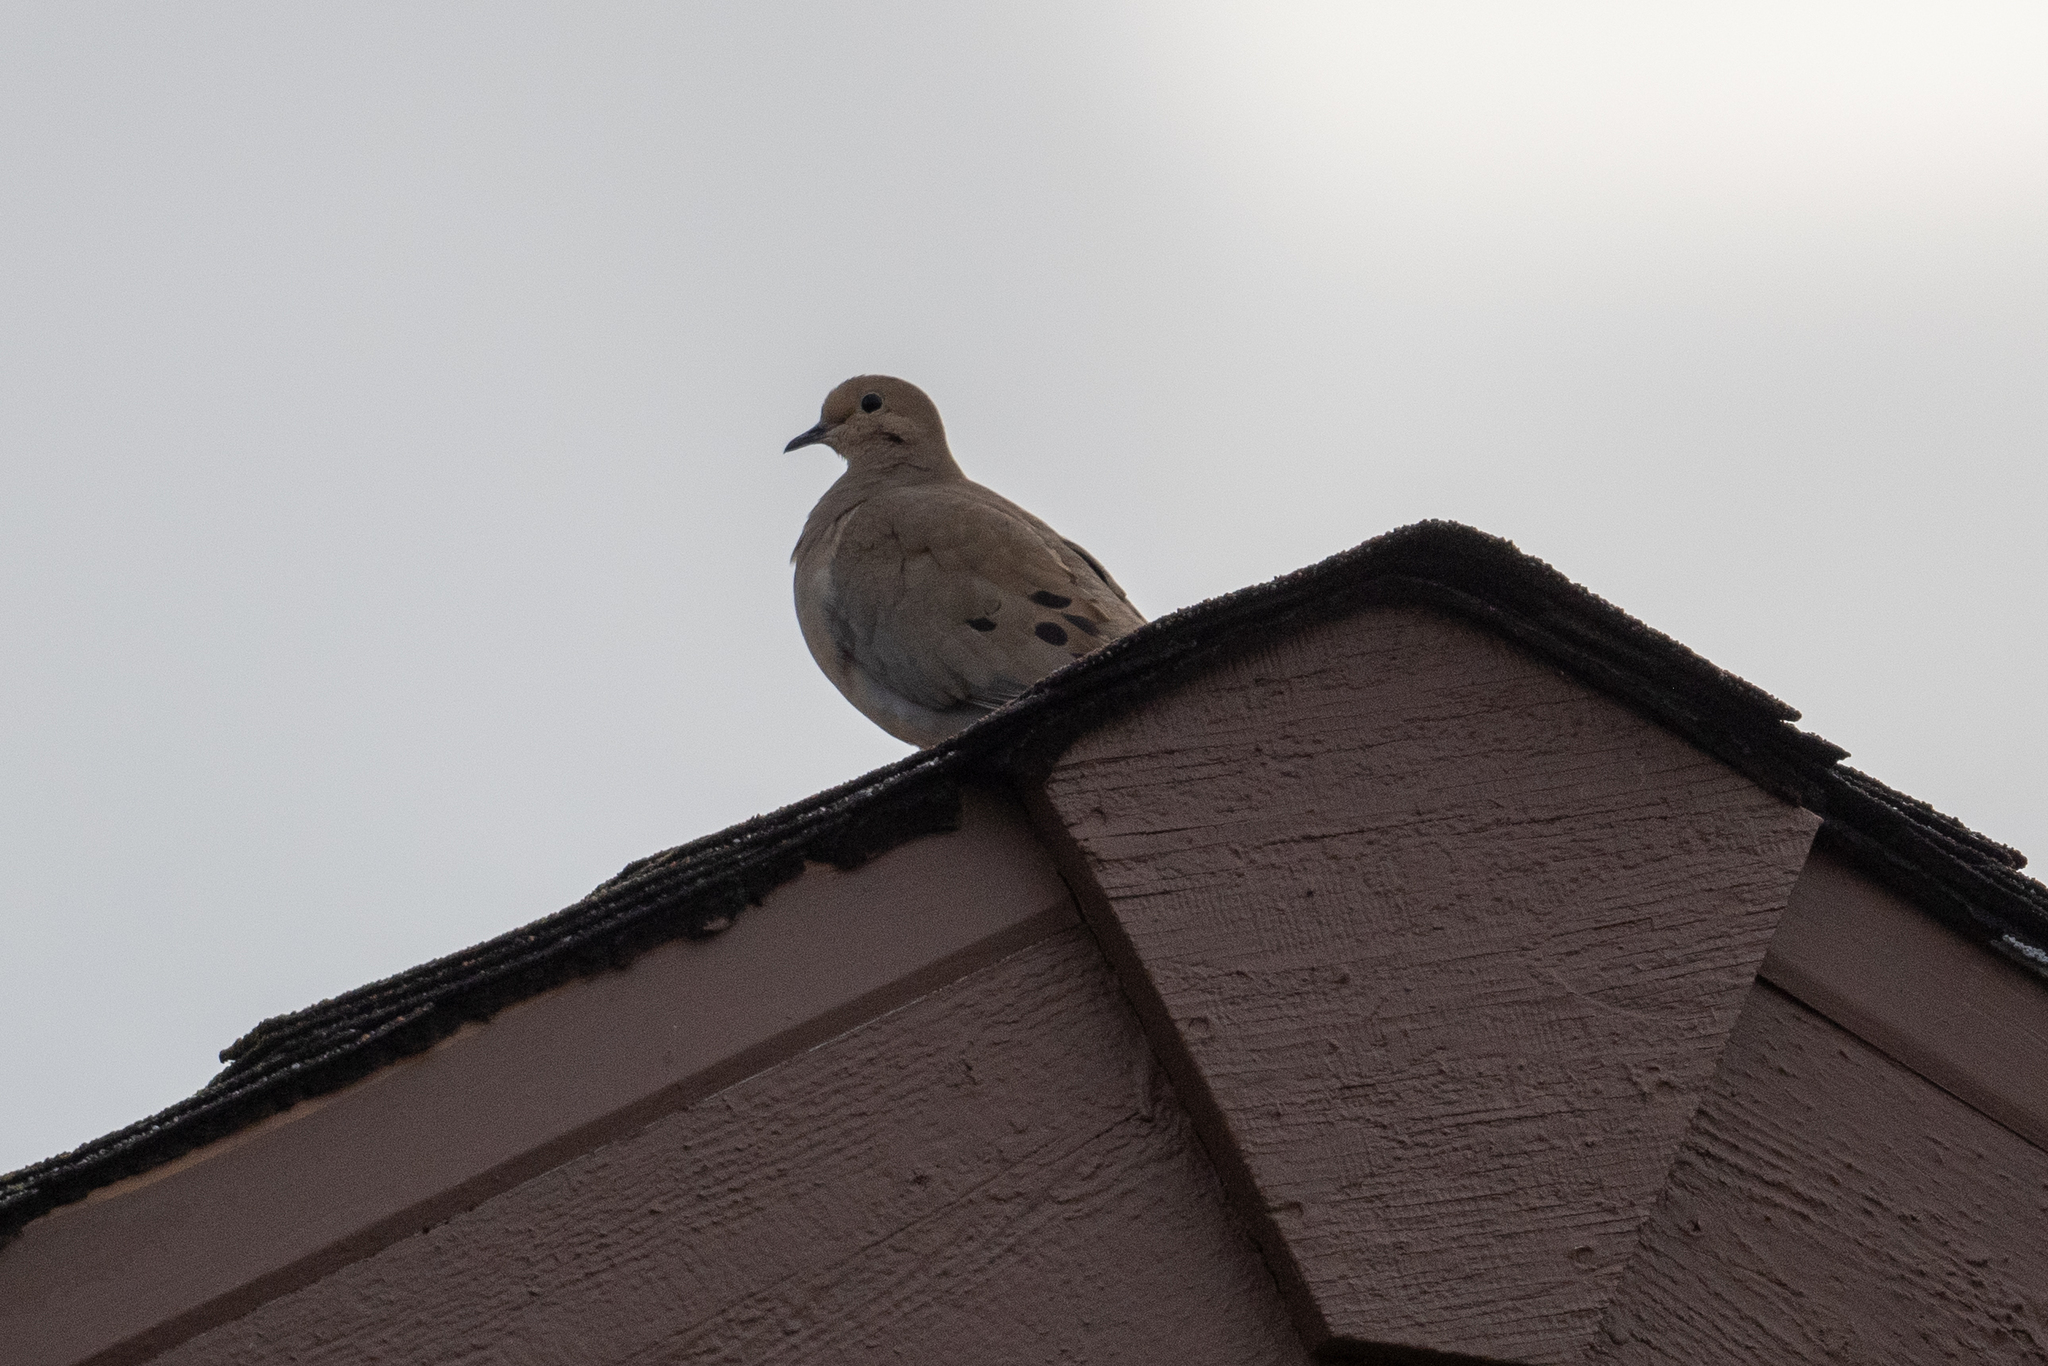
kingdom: Animalia
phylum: Chordata
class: Aves
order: Columbiformes
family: Columbidae
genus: Zenaida
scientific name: Zenaida macroura
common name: Mourning dove
